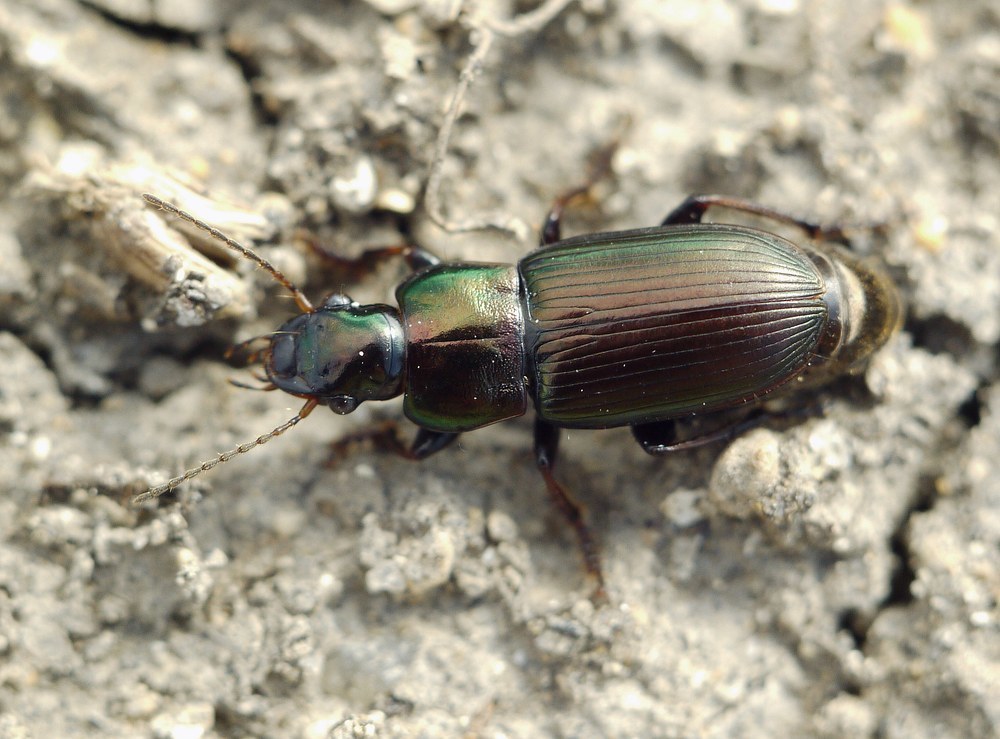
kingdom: Animalia
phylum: Arthropoda
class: Insecta
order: Coleoptera
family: Carabidae
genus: Harpalus
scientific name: Harpalus distinguendus
